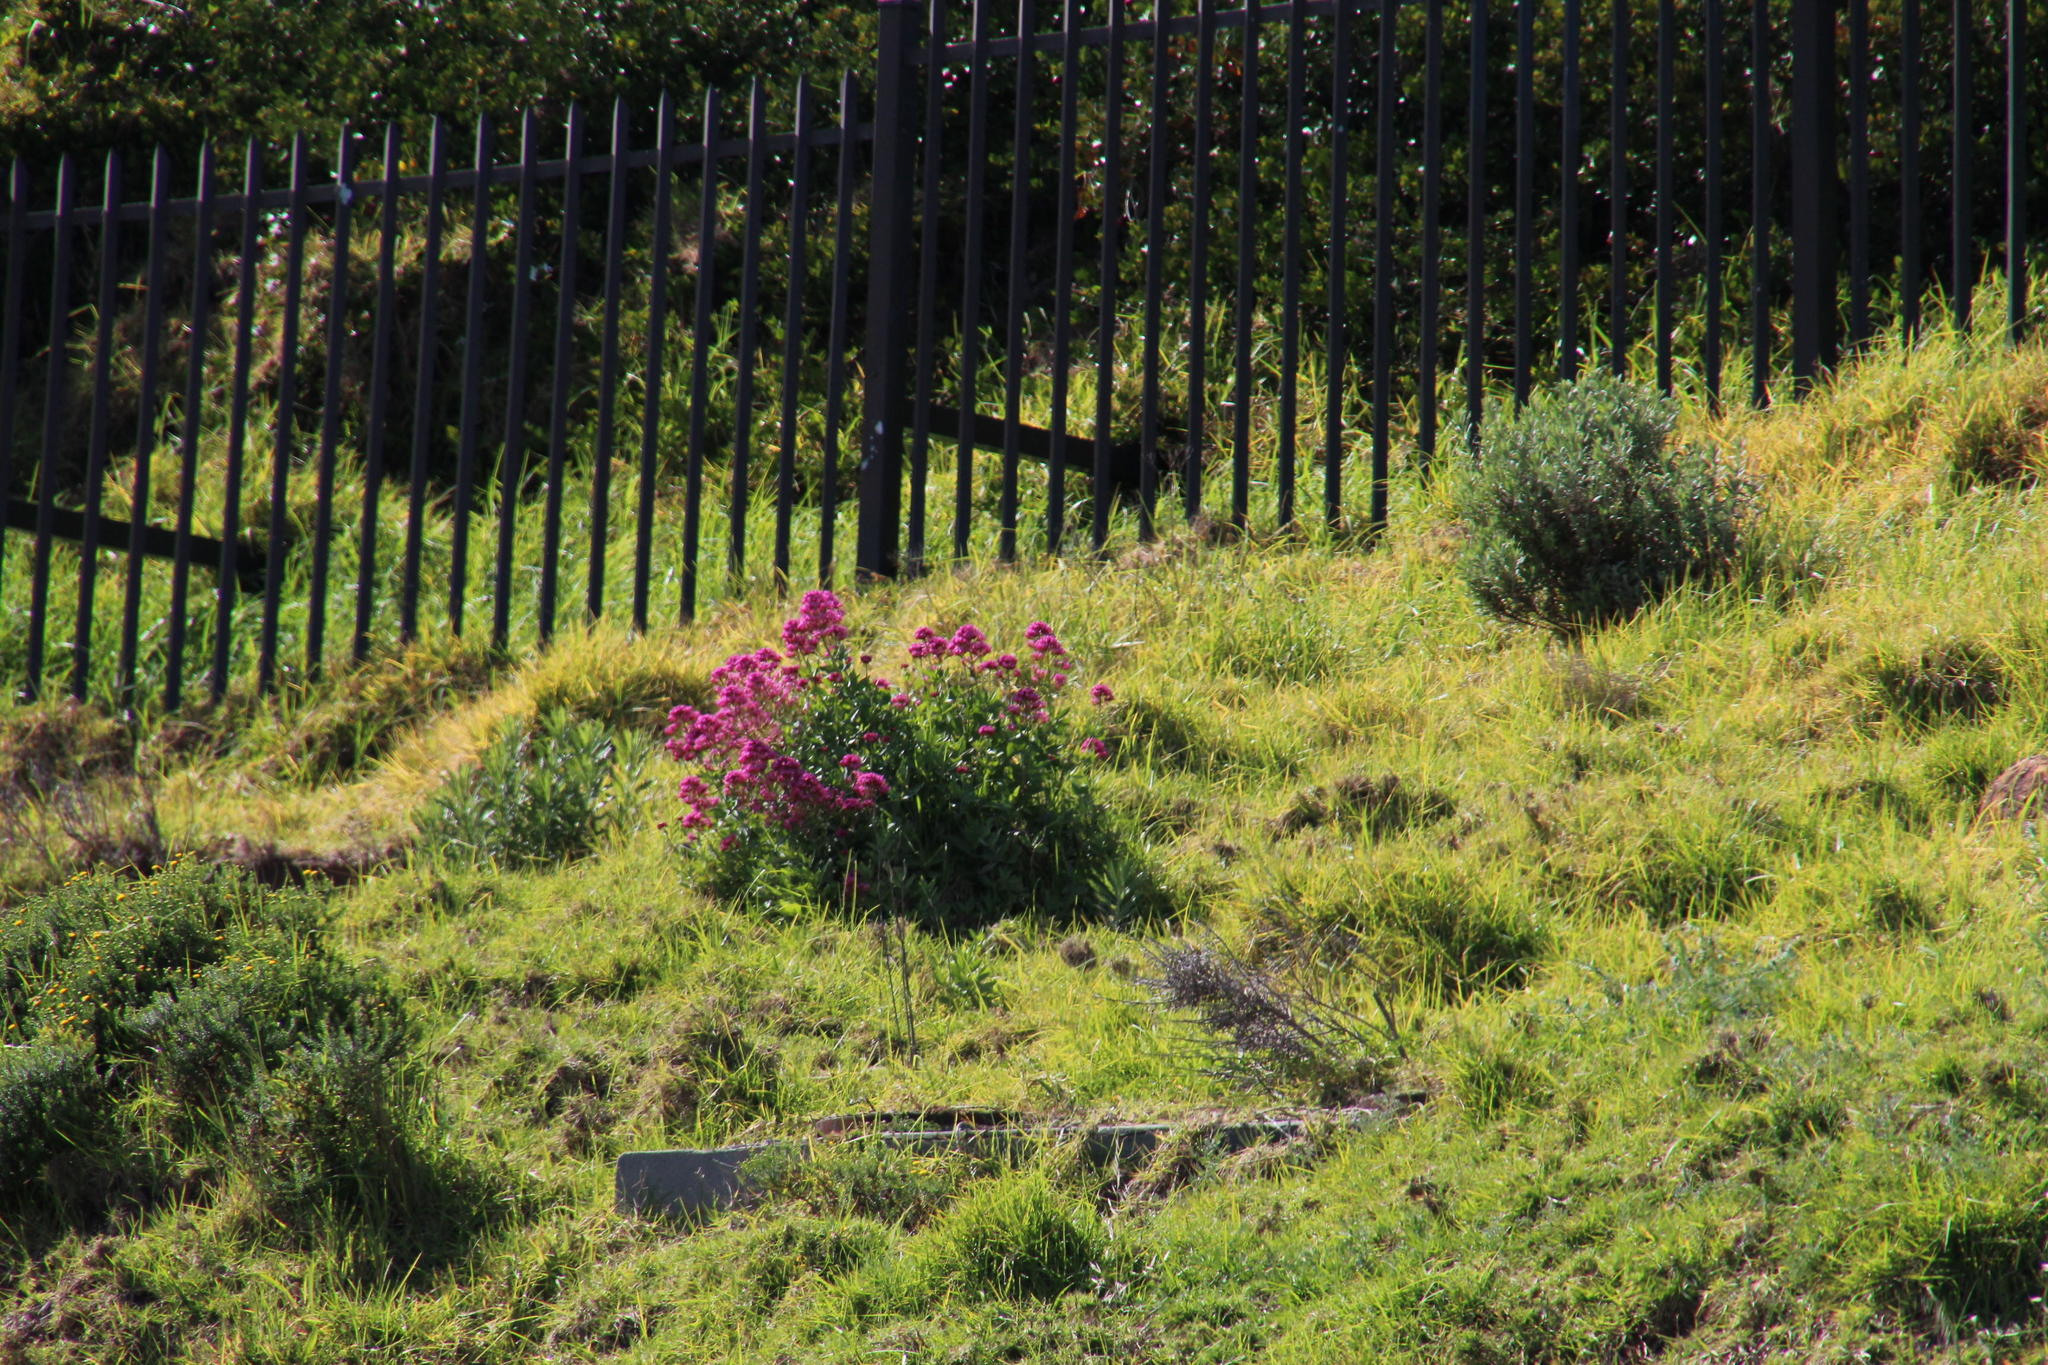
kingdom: Plantae
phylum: Tracheophyta
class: Liliopsida
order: Poales
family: Poaceae
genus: Cenchrus
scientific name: Cenchrus clandestinus
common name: Kikuyugrass
